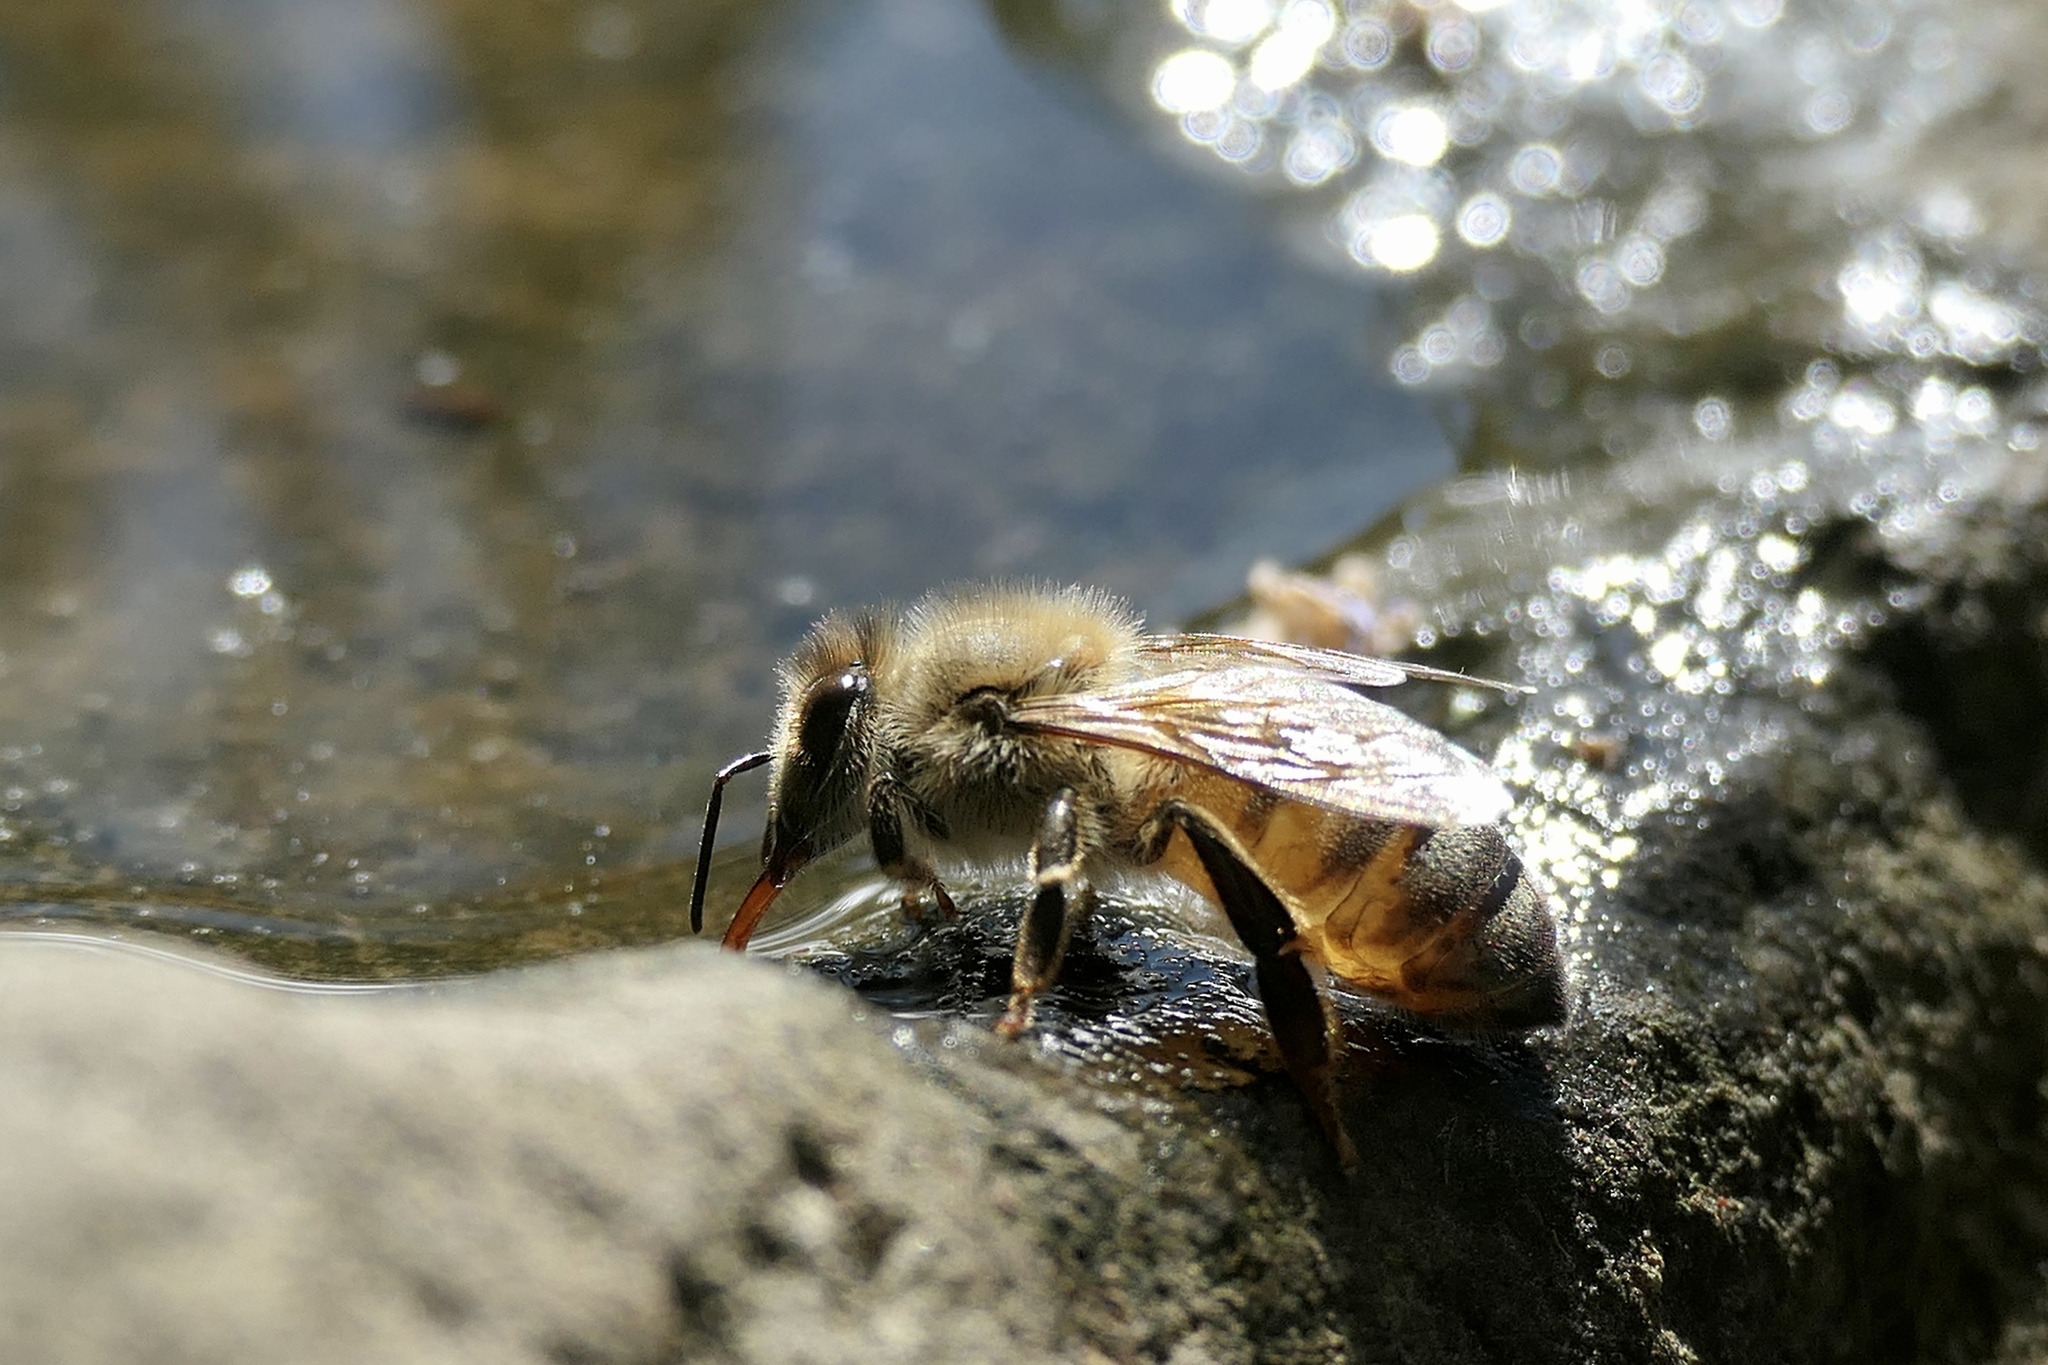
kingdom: Animalia
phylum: Arthropoda
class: Insecta
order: Hymenoptera
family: Apidae
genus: Apis
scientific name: Apis mellifera
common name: Honey bee
